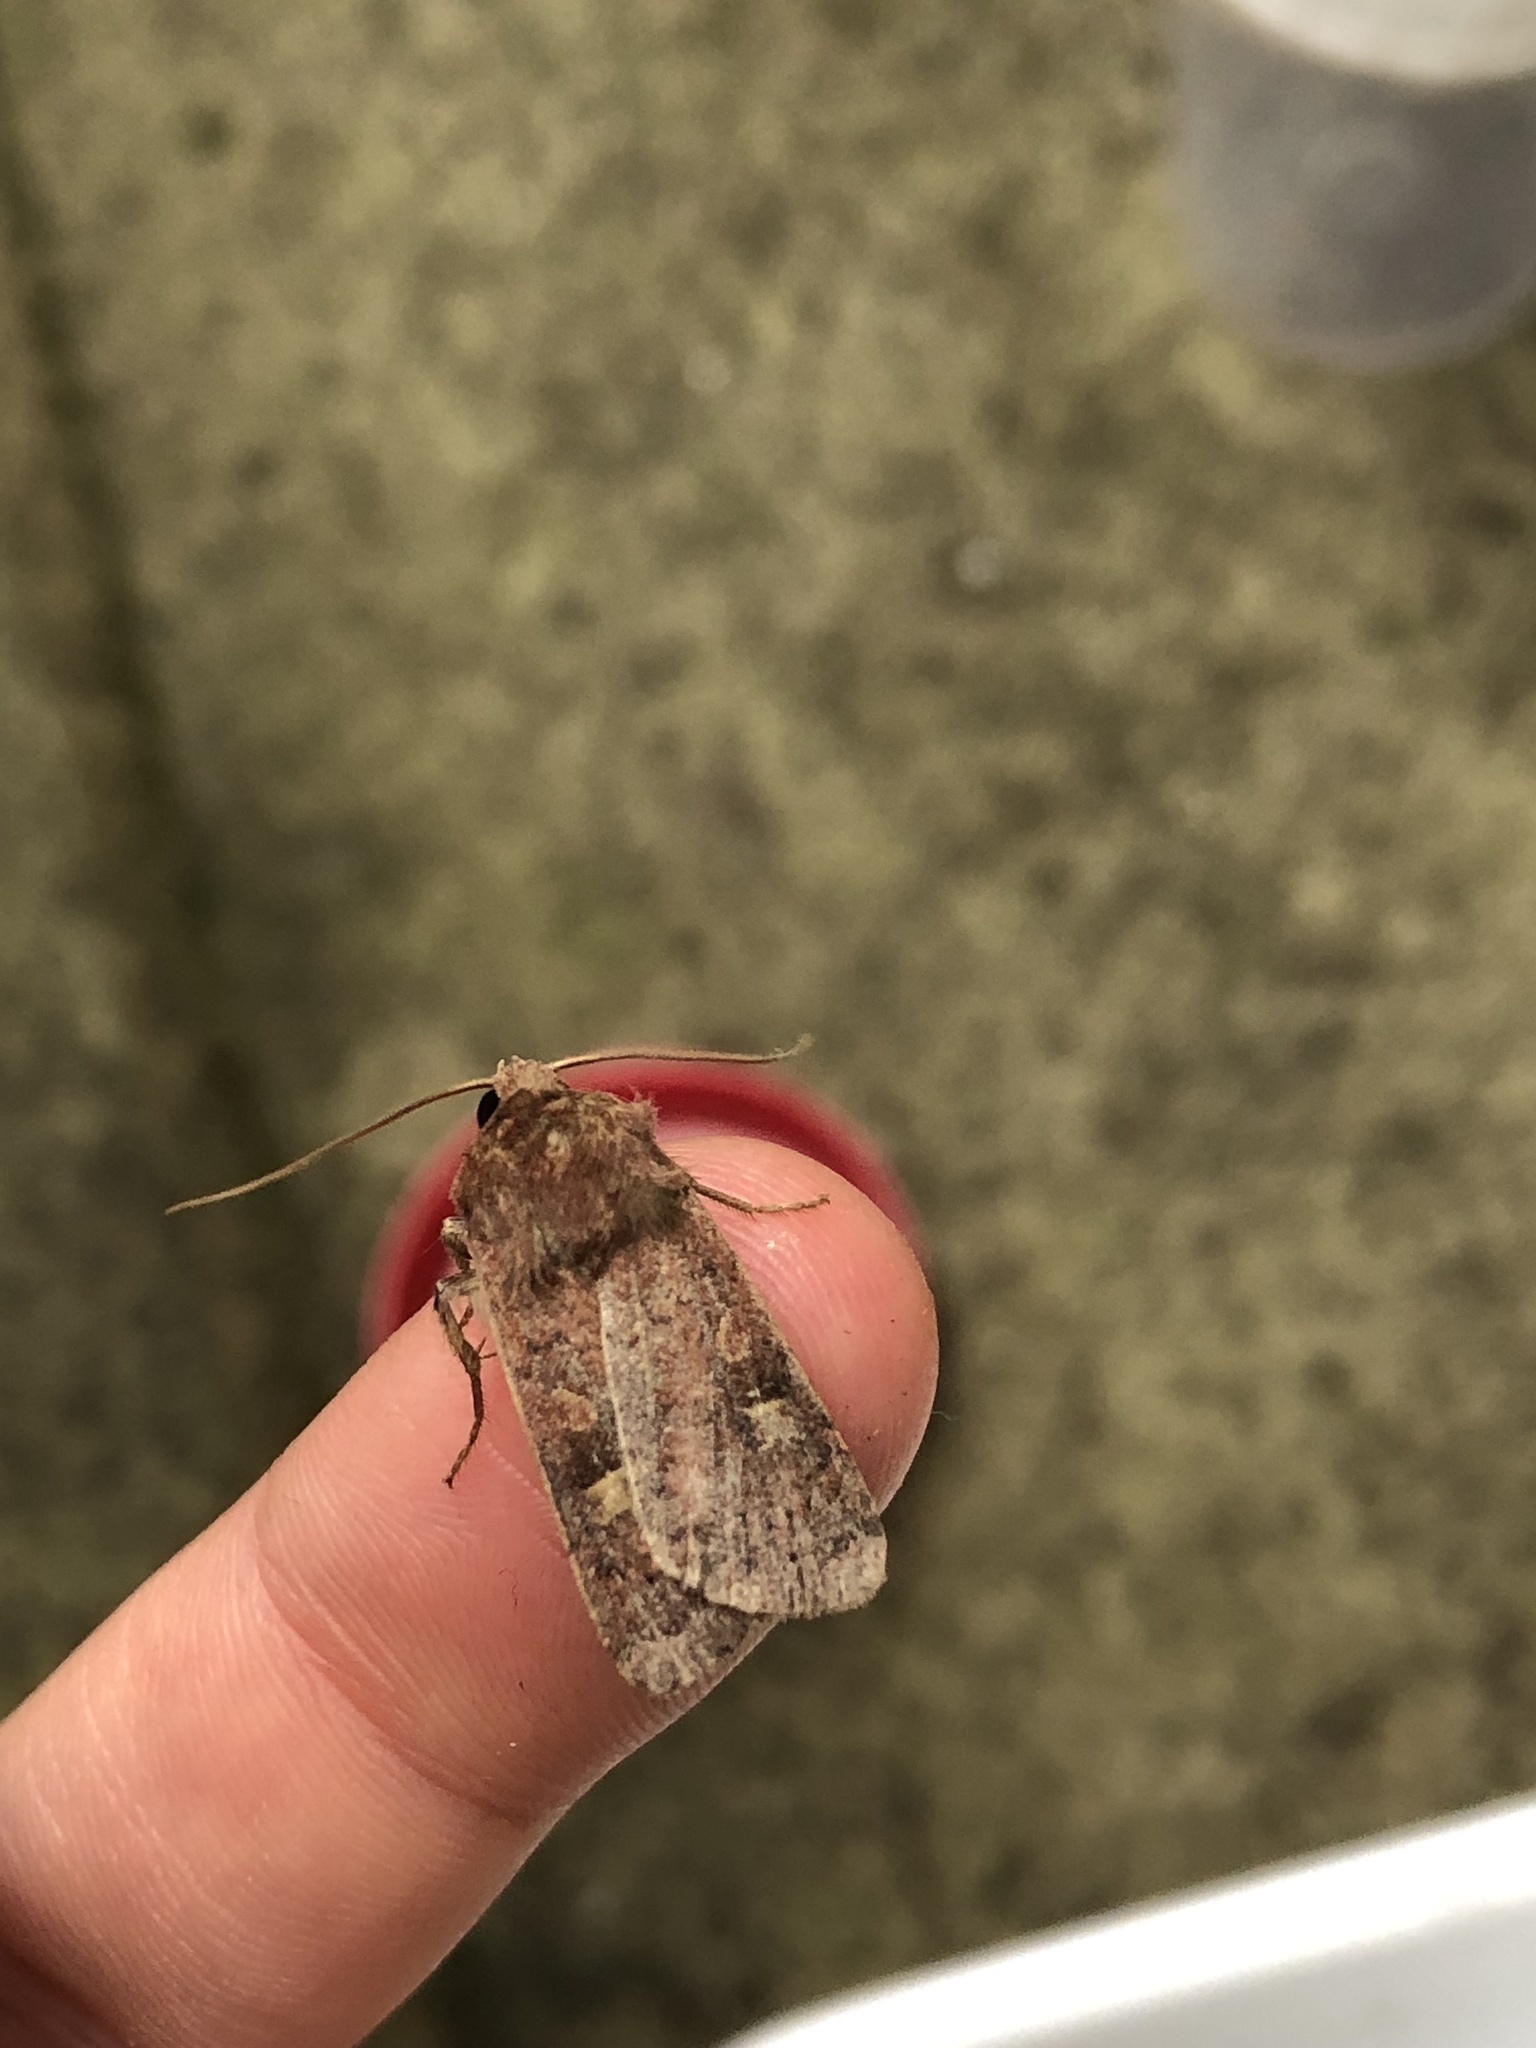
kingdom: Animalia
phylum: Arthropoda
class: Insecta
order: Lepidoptera
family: Noctuidae
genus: Xestia
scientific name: Xestia xanthographa
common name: Square-spot rustic
